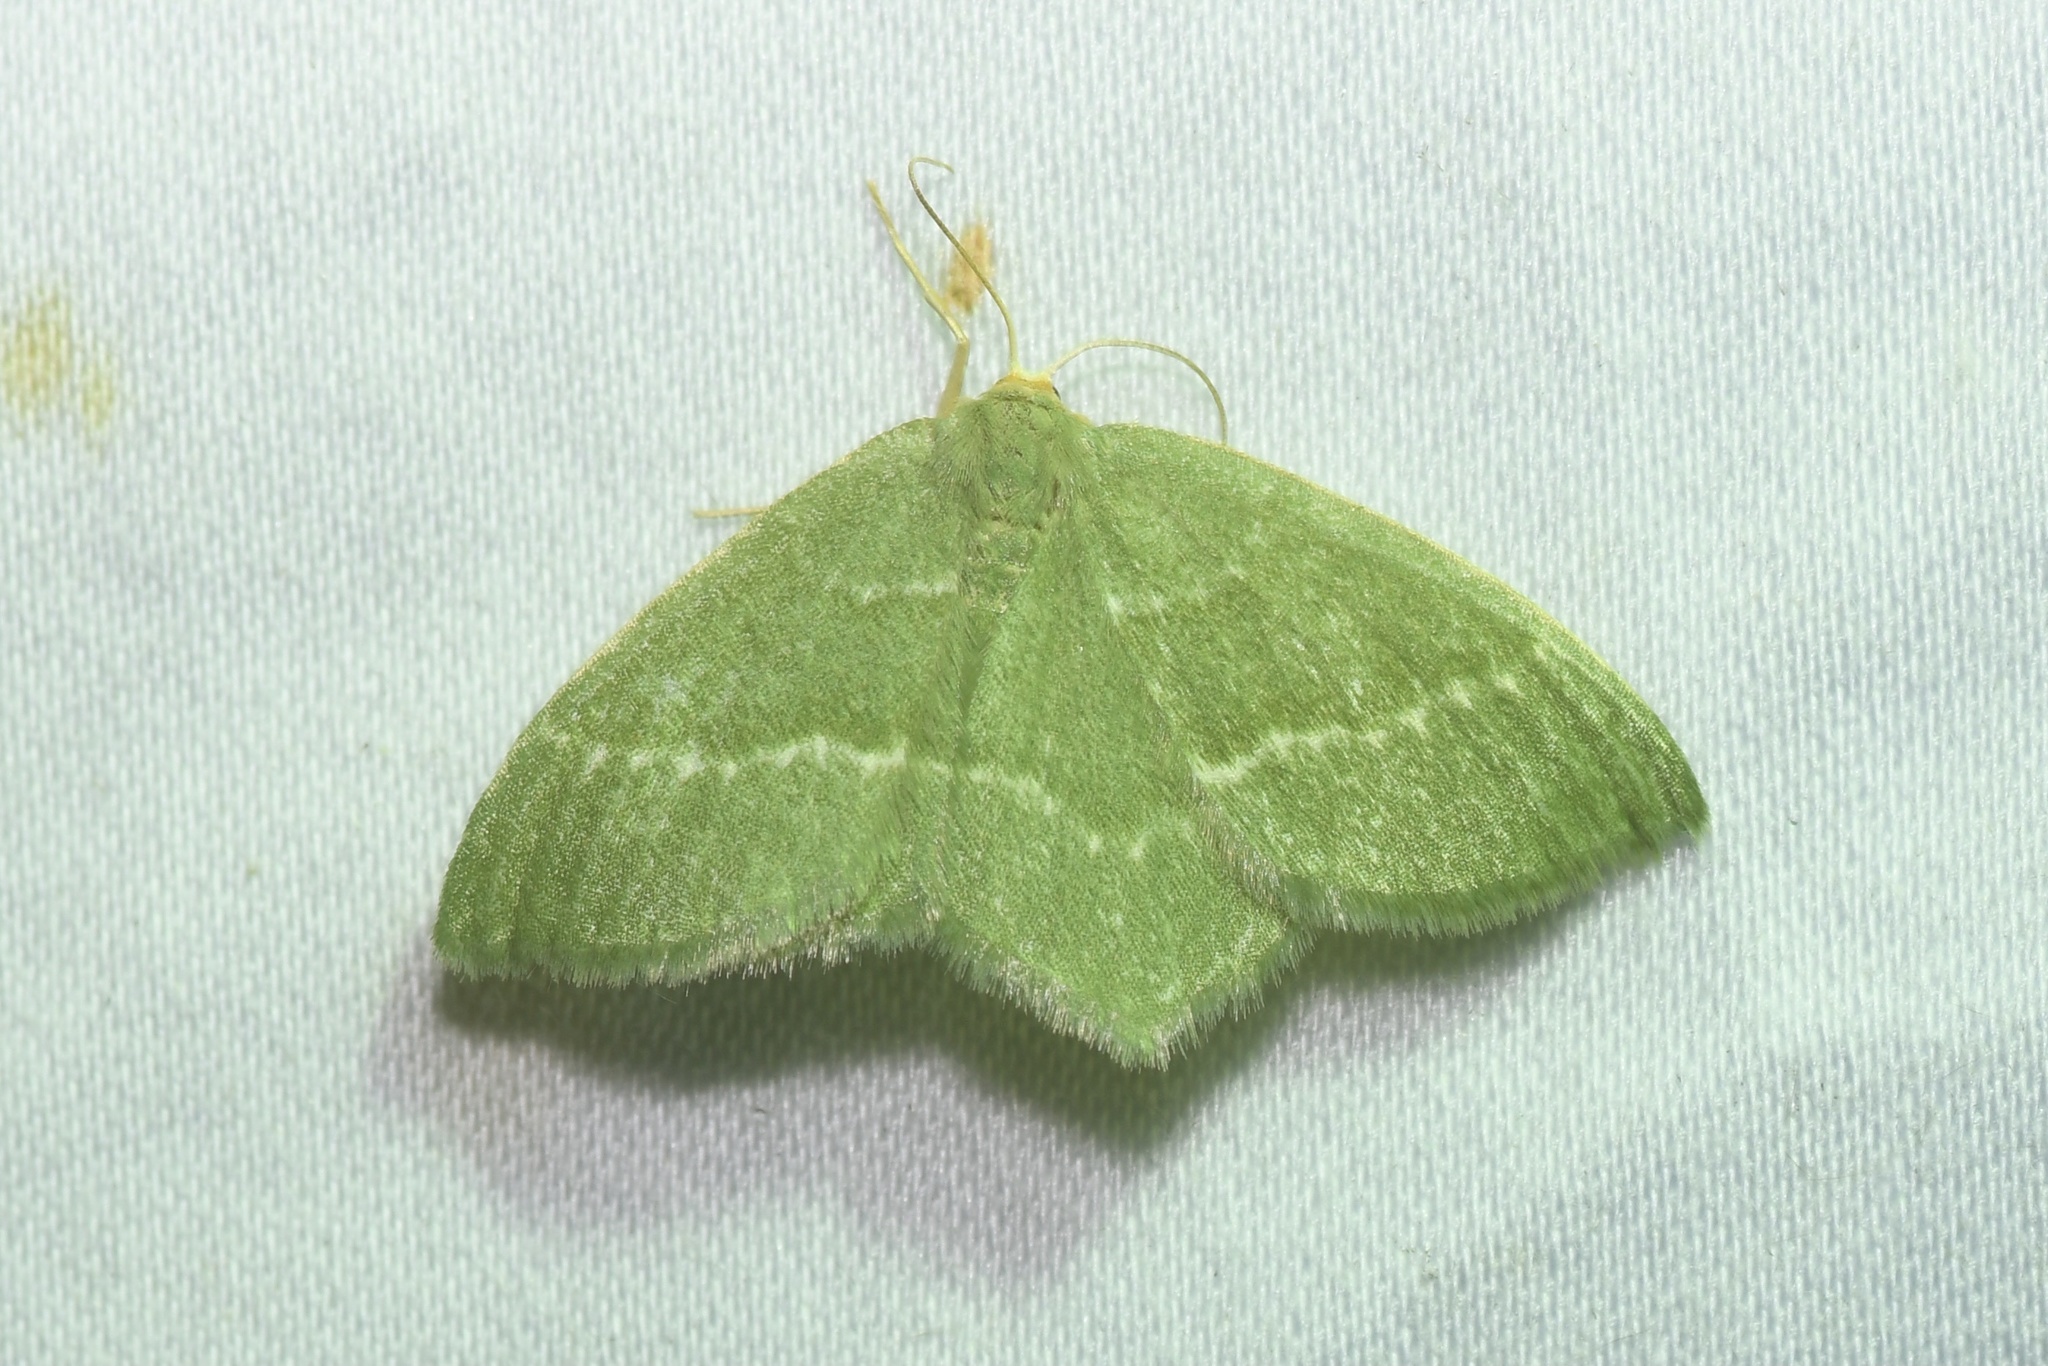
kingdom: Animalia
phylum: Arthropoda
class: Insecta
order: Lepidoptera
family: Geometridae
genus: Thalera
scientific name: Thalera pistasciaria
